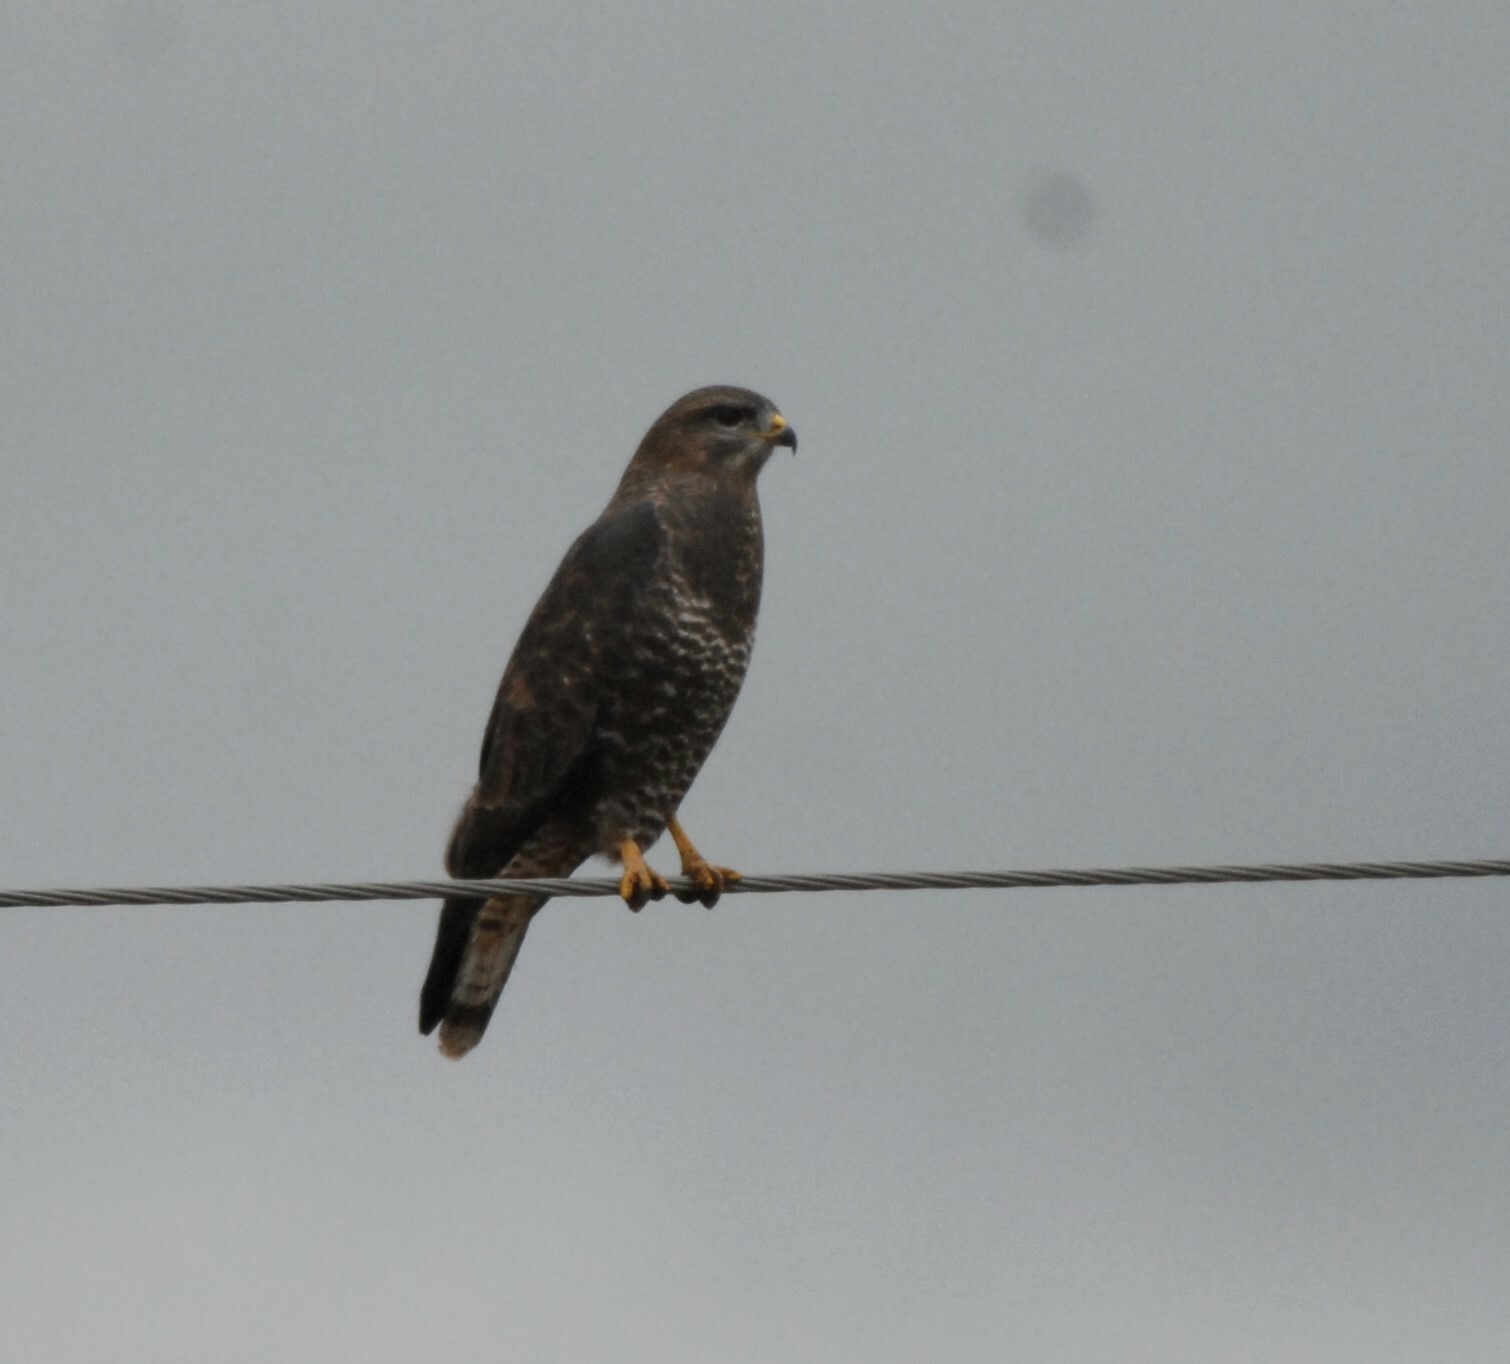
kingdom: Animalia
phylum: Chordata
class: Aves
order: Accipitriformes
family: Accipitridae
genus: Buteo
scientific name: Buteo buteo
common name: Common buzzard
